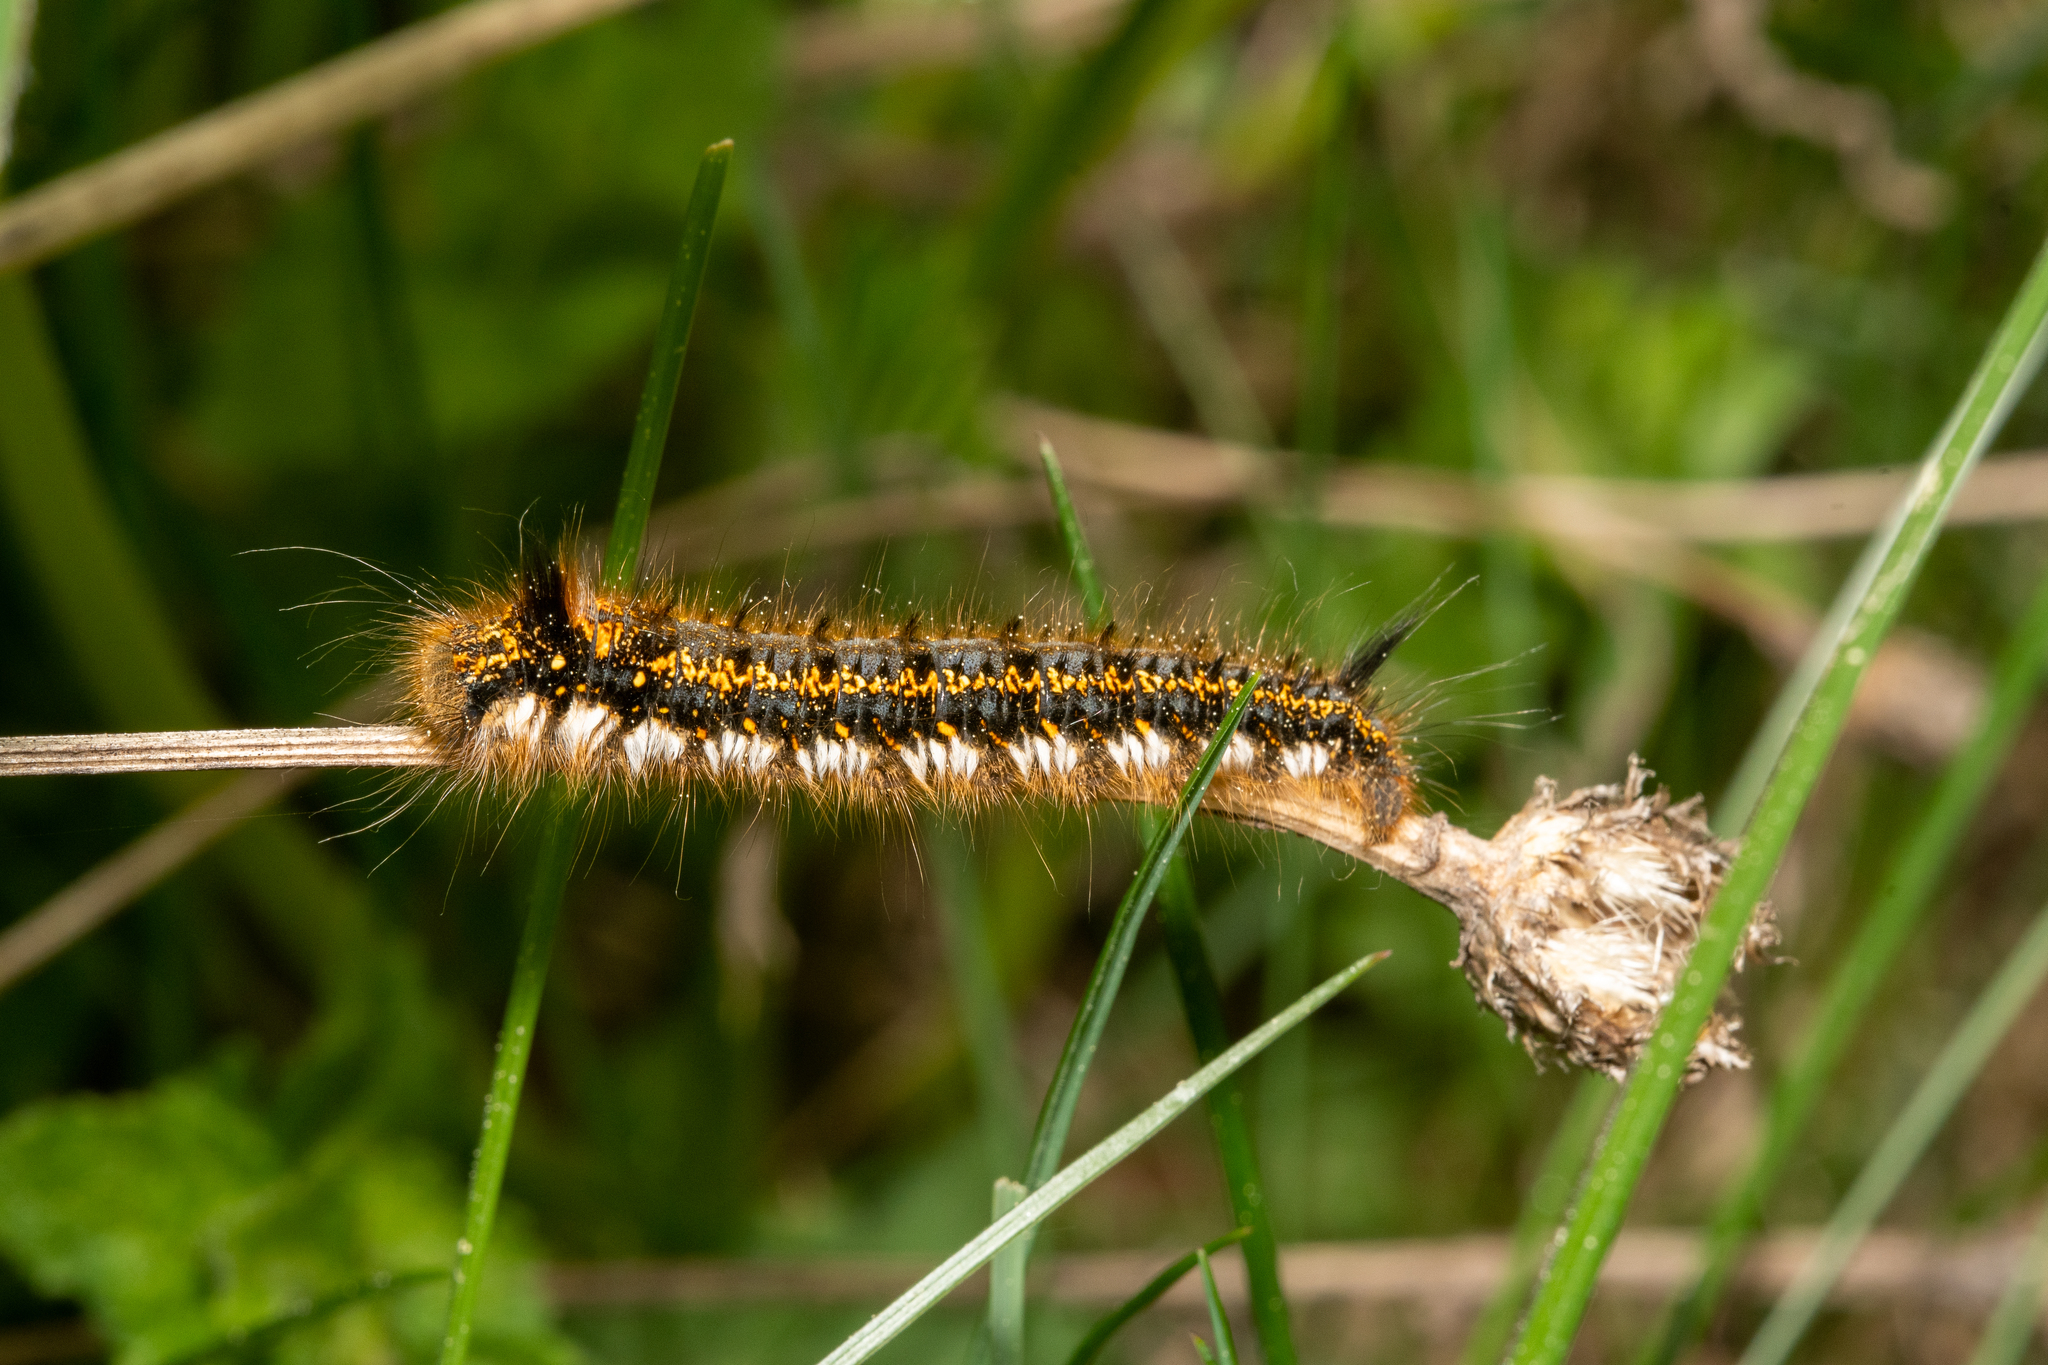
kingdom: Animalia
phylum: Arthropoda
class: Insecta
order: Lepidoptera
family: Lasiocampidae
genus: Euthrix
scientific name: Euthrix potatoria
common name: Drinker
